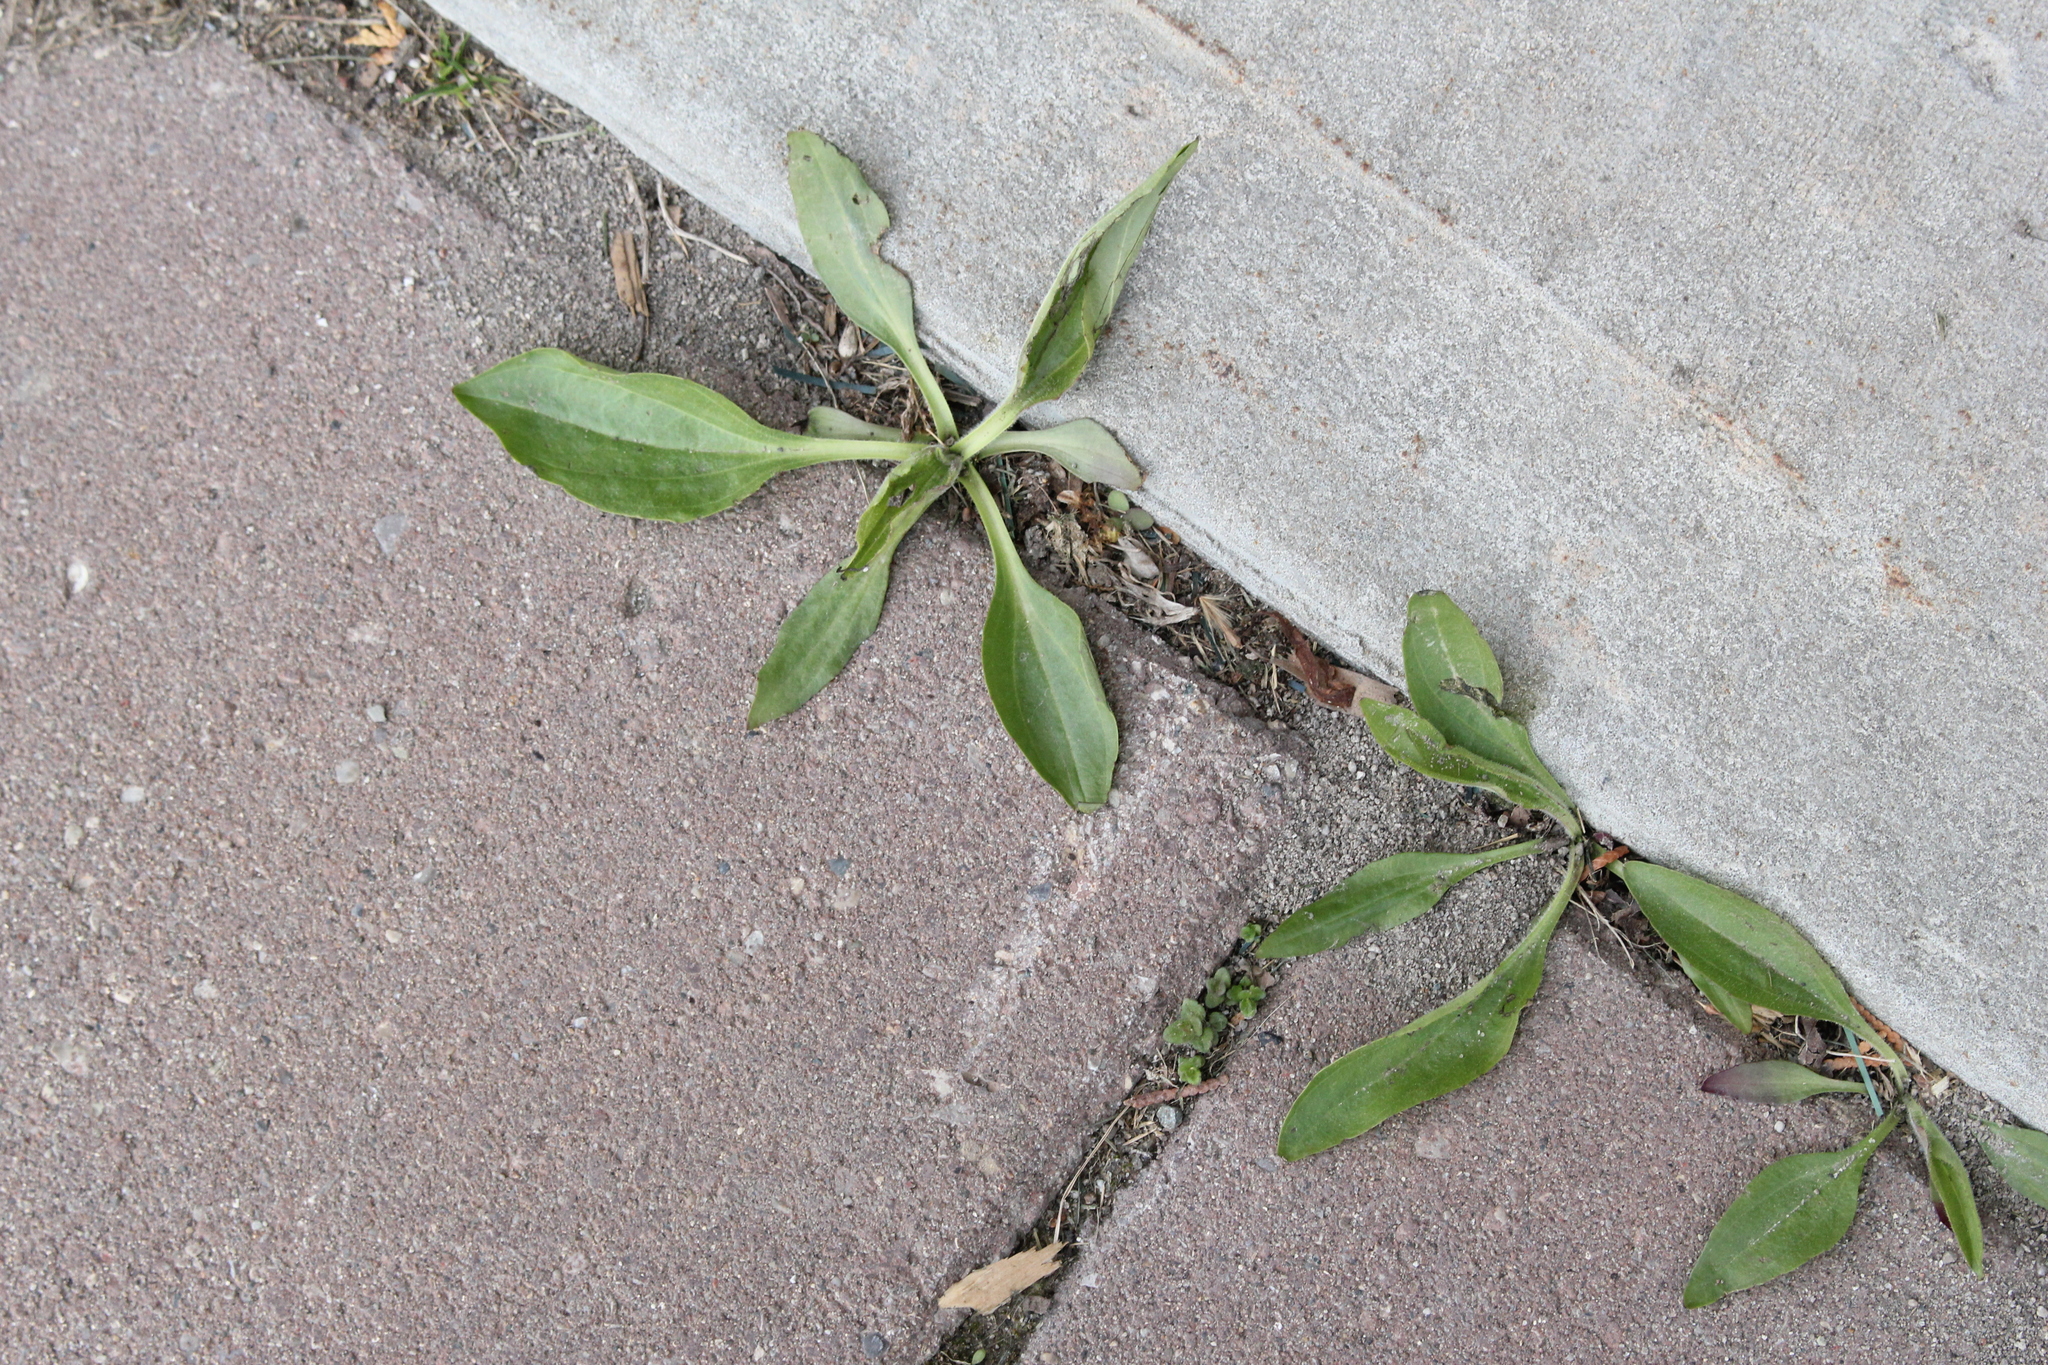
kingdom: Plantae
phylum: Tracheophyta
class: Magnoliopsida
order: Lamiales
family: Plantaginaceae
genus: Plantago
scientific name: Plantago major
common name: Common plantain
